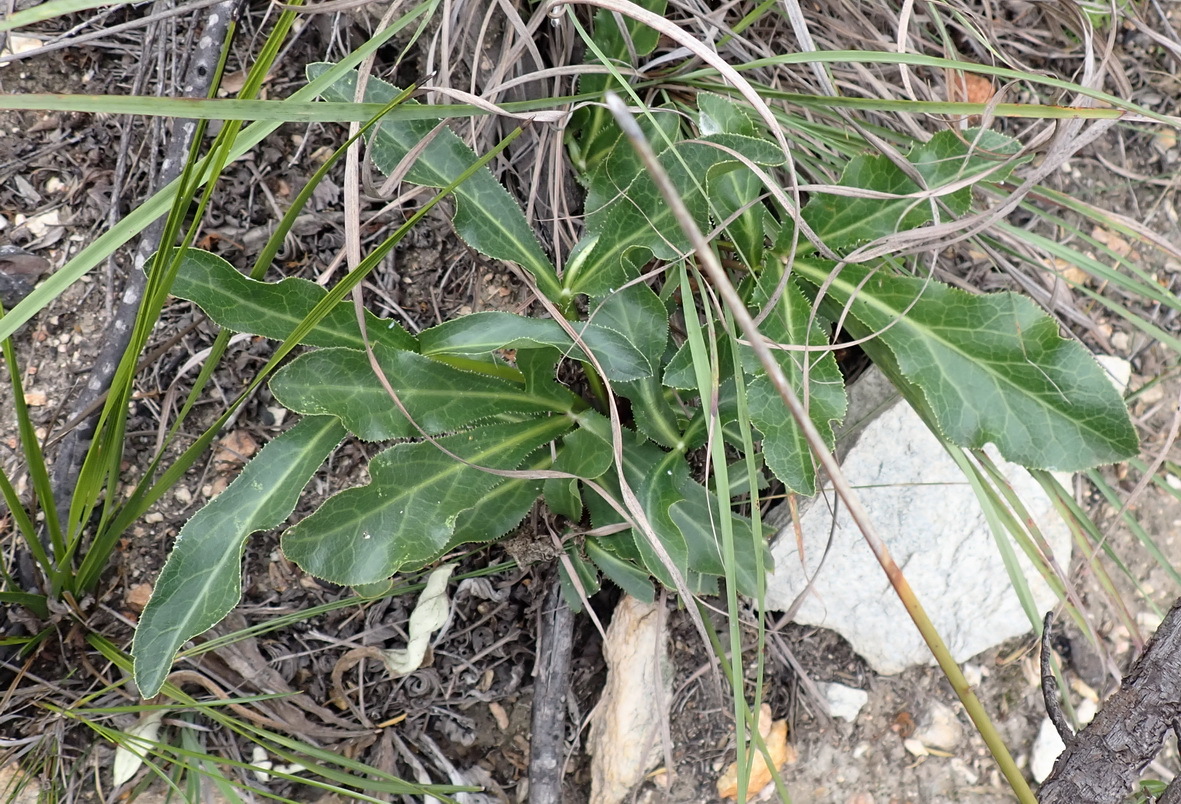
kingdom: Plantae
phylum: Tracheophyta
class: Magnoliopsida
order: Apiales
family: Apiaceae
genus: Lichtensteinia
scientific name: Lichtensteinia trifida
